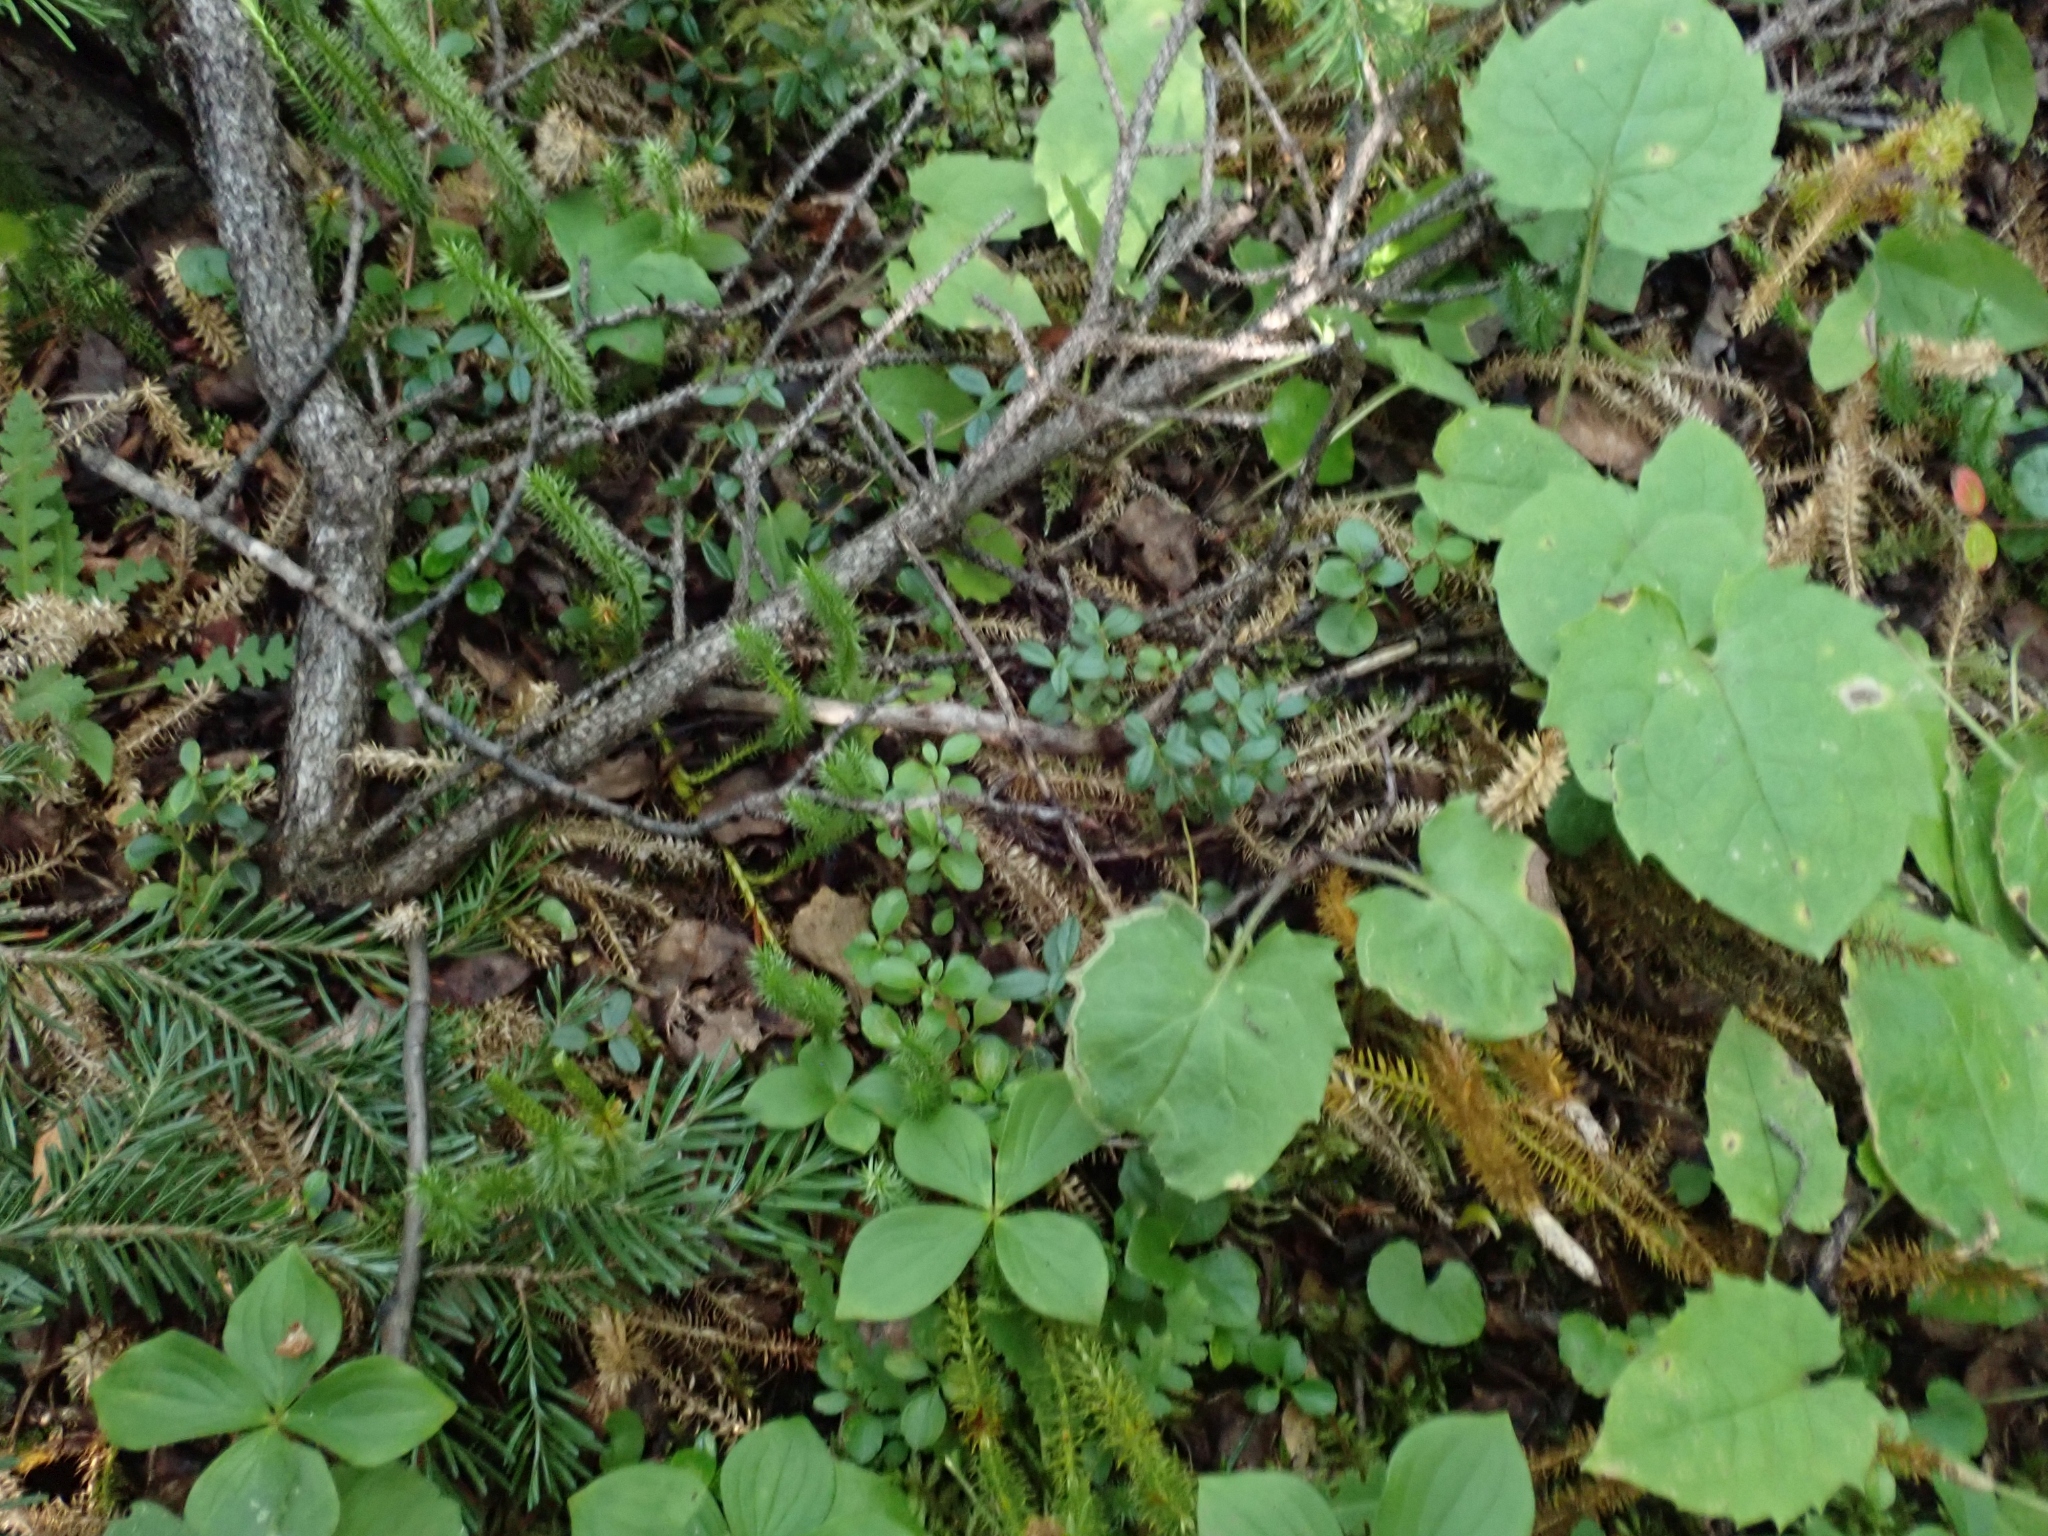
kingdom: Plantae
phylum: Tracheophyta
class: Magnoliopsida
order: Ericales
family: Ericaceae
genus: Vaccinium
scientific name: Vaccinium vitis-idaea
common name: Cowberry
